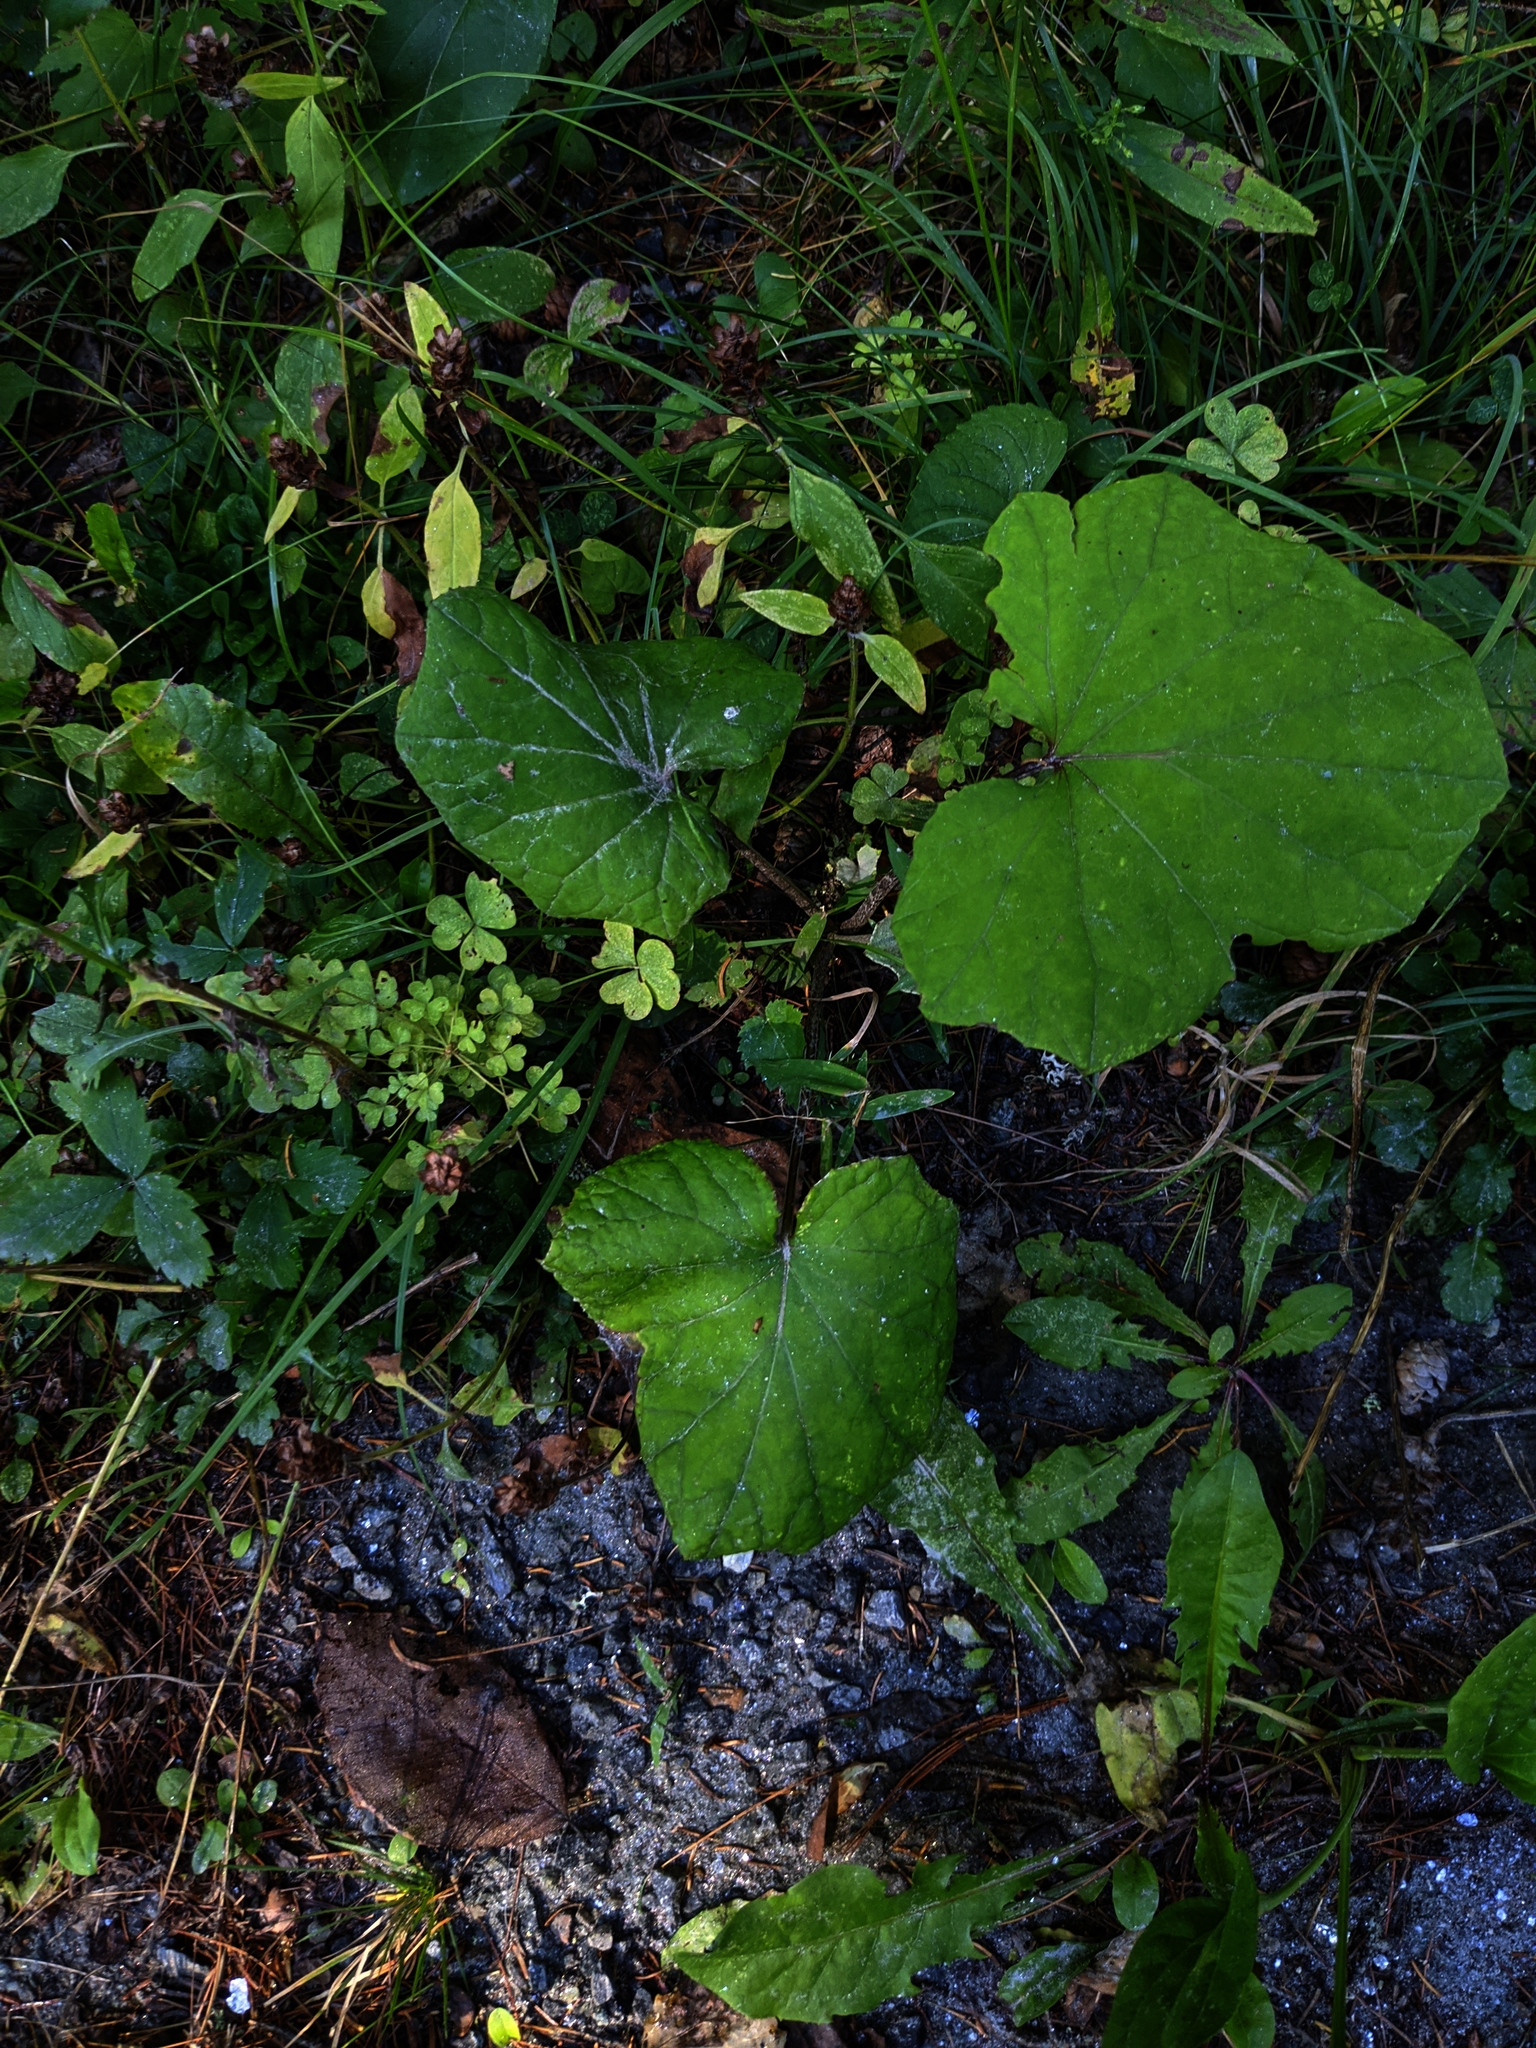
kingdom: Plantae
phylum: Tracheophyta
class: Magnoliopsida
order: Asterales
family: Asteraceae
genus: Tussilago
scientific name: Tussilago farfara
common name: Coltsfoot
